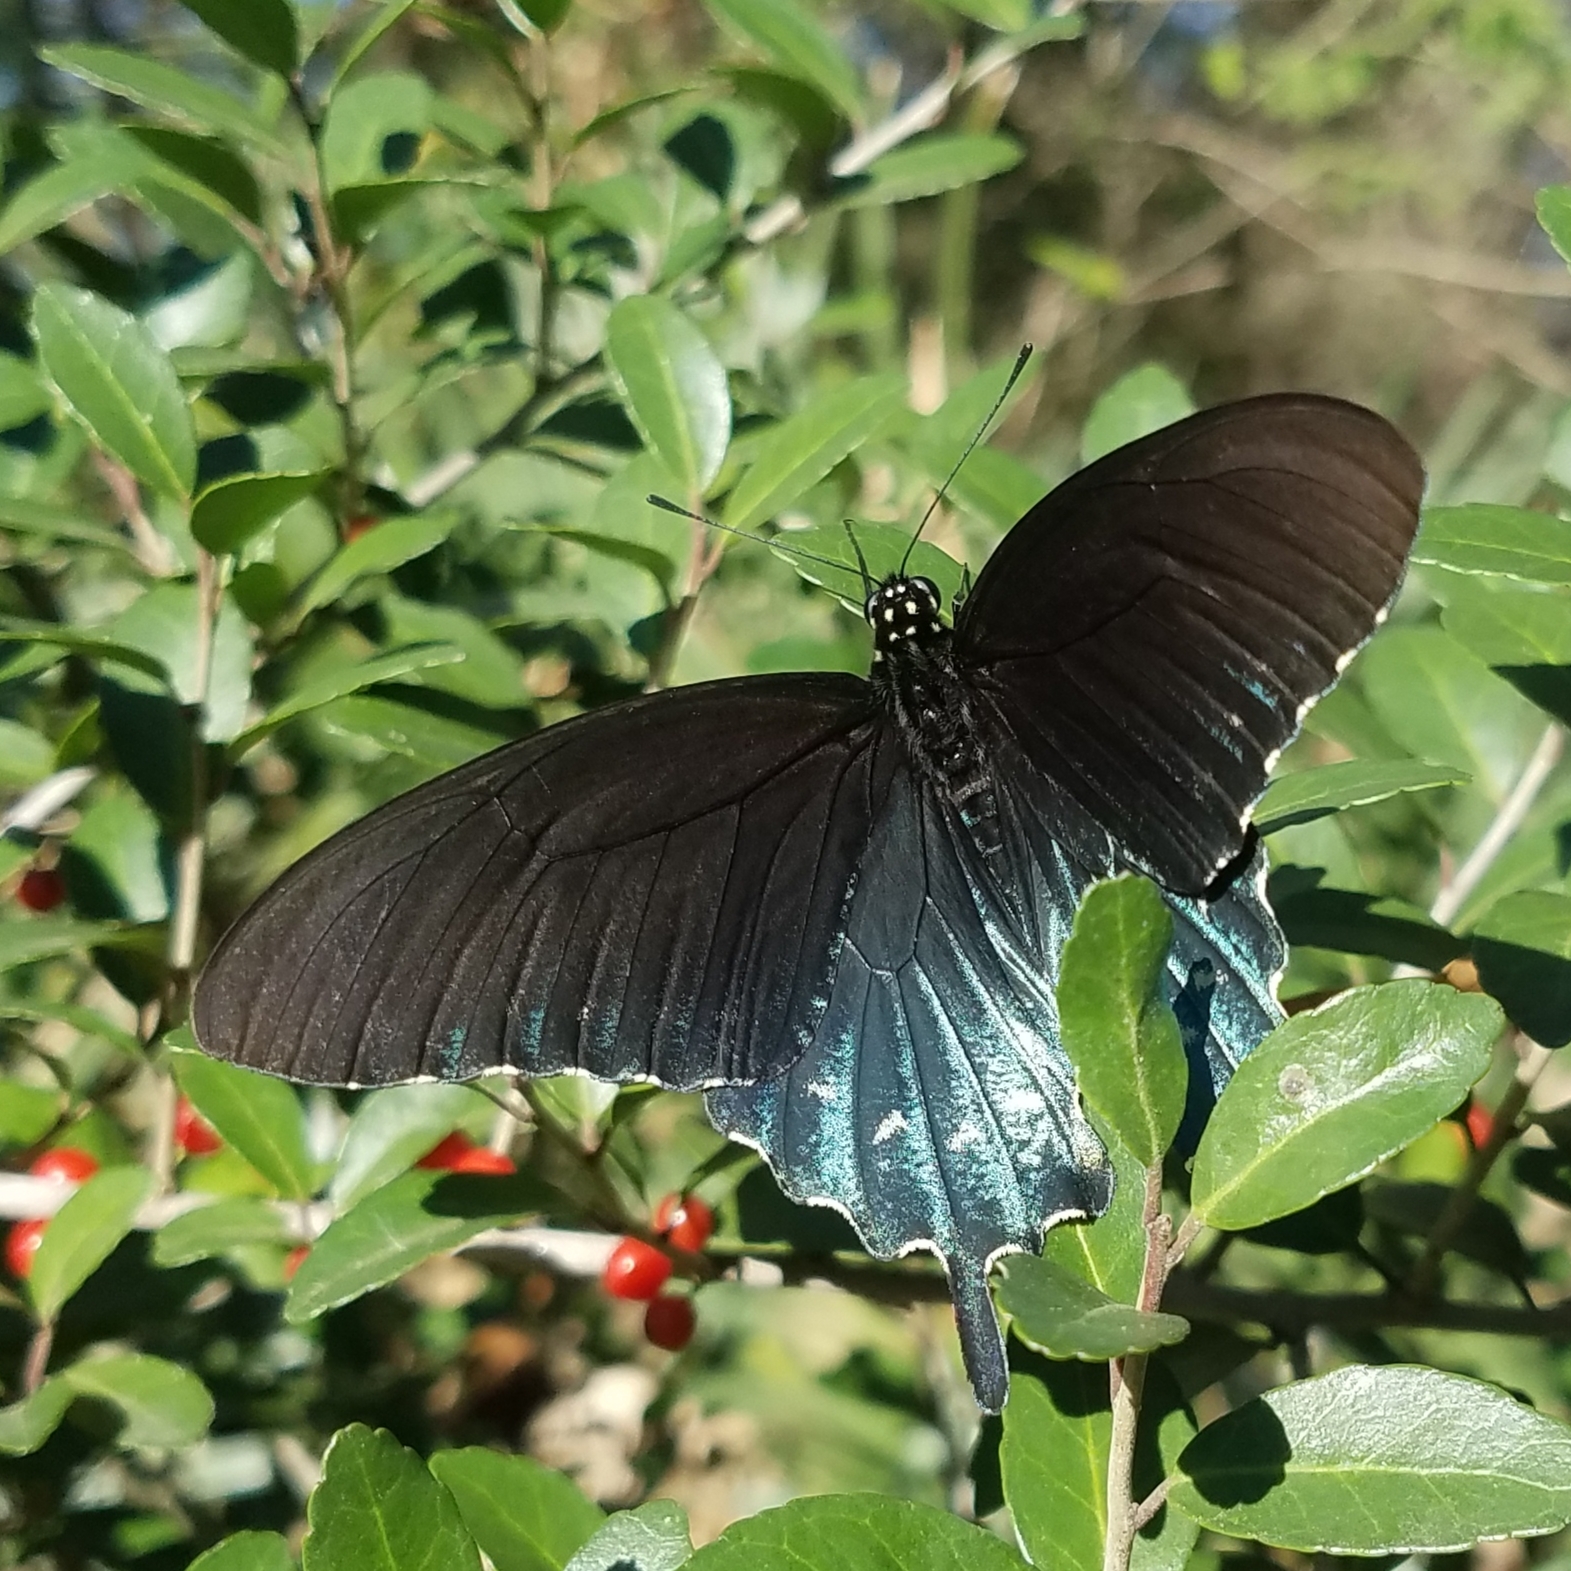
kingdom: Animalia
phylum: Arthropoda
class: Insecta
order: Lepidoptera
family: Papilionidae
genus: Battus
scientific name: Battus philenor
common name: Pipevine swallowtail
